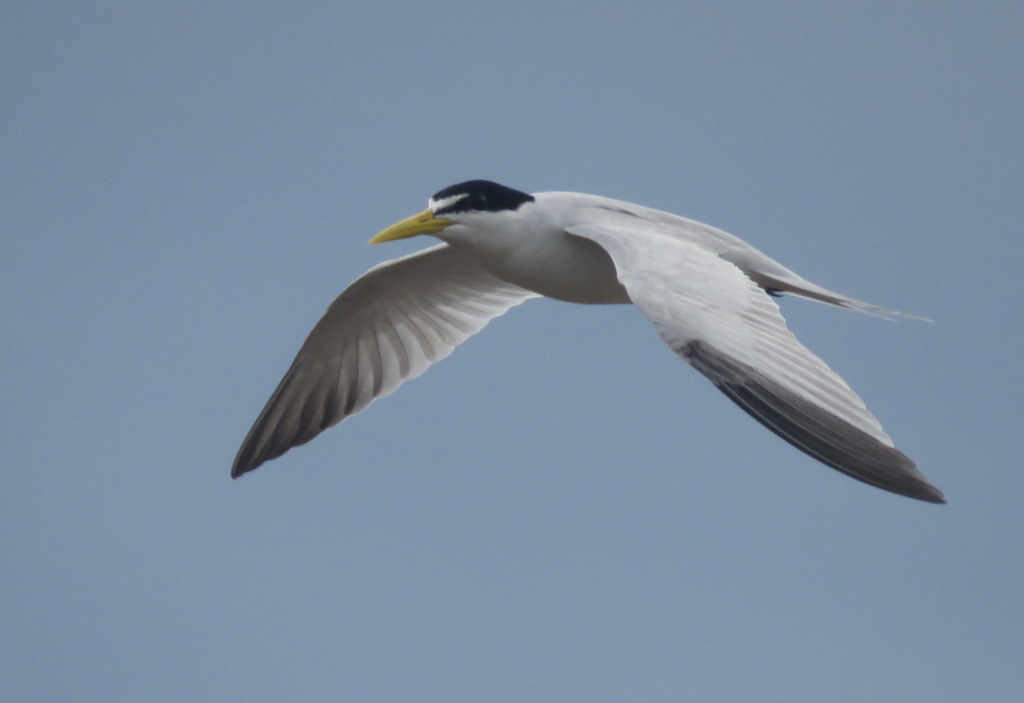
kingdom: Animalia
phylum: Chordata
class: Aves
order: Charadriiformes
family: Laridae
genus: Sternula
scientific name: Sternula superciliaris
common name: Yellow-billed tern
